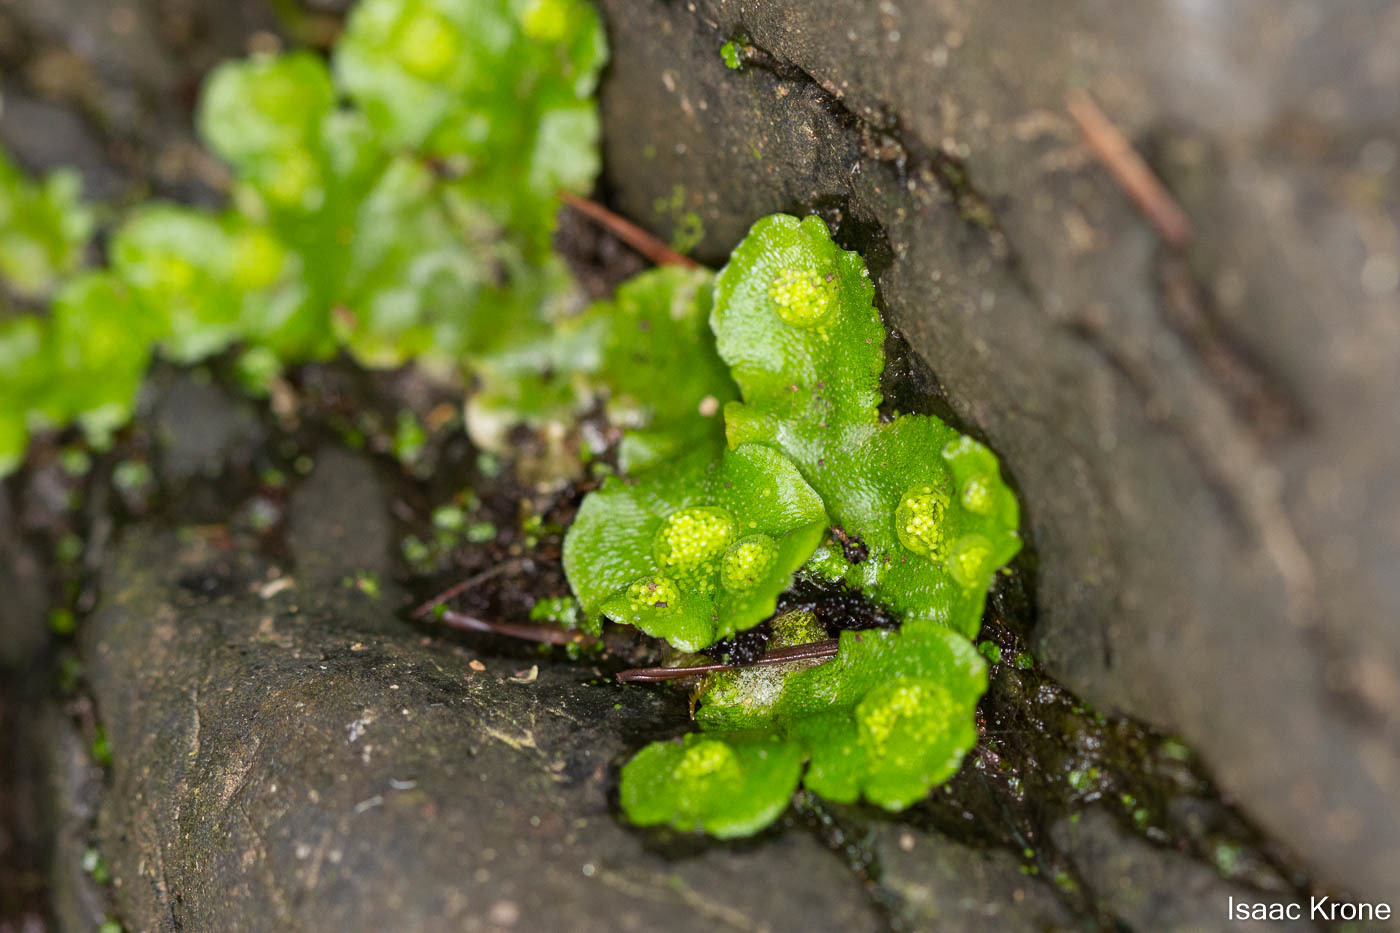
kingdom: Plantae
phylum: Marchantiophyta
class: Marchantiopsida
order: Lunulariales
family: Lunulariaceae
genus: Lunularia
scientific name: Lunularia cruciata
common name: Crescent-cup liverwort
